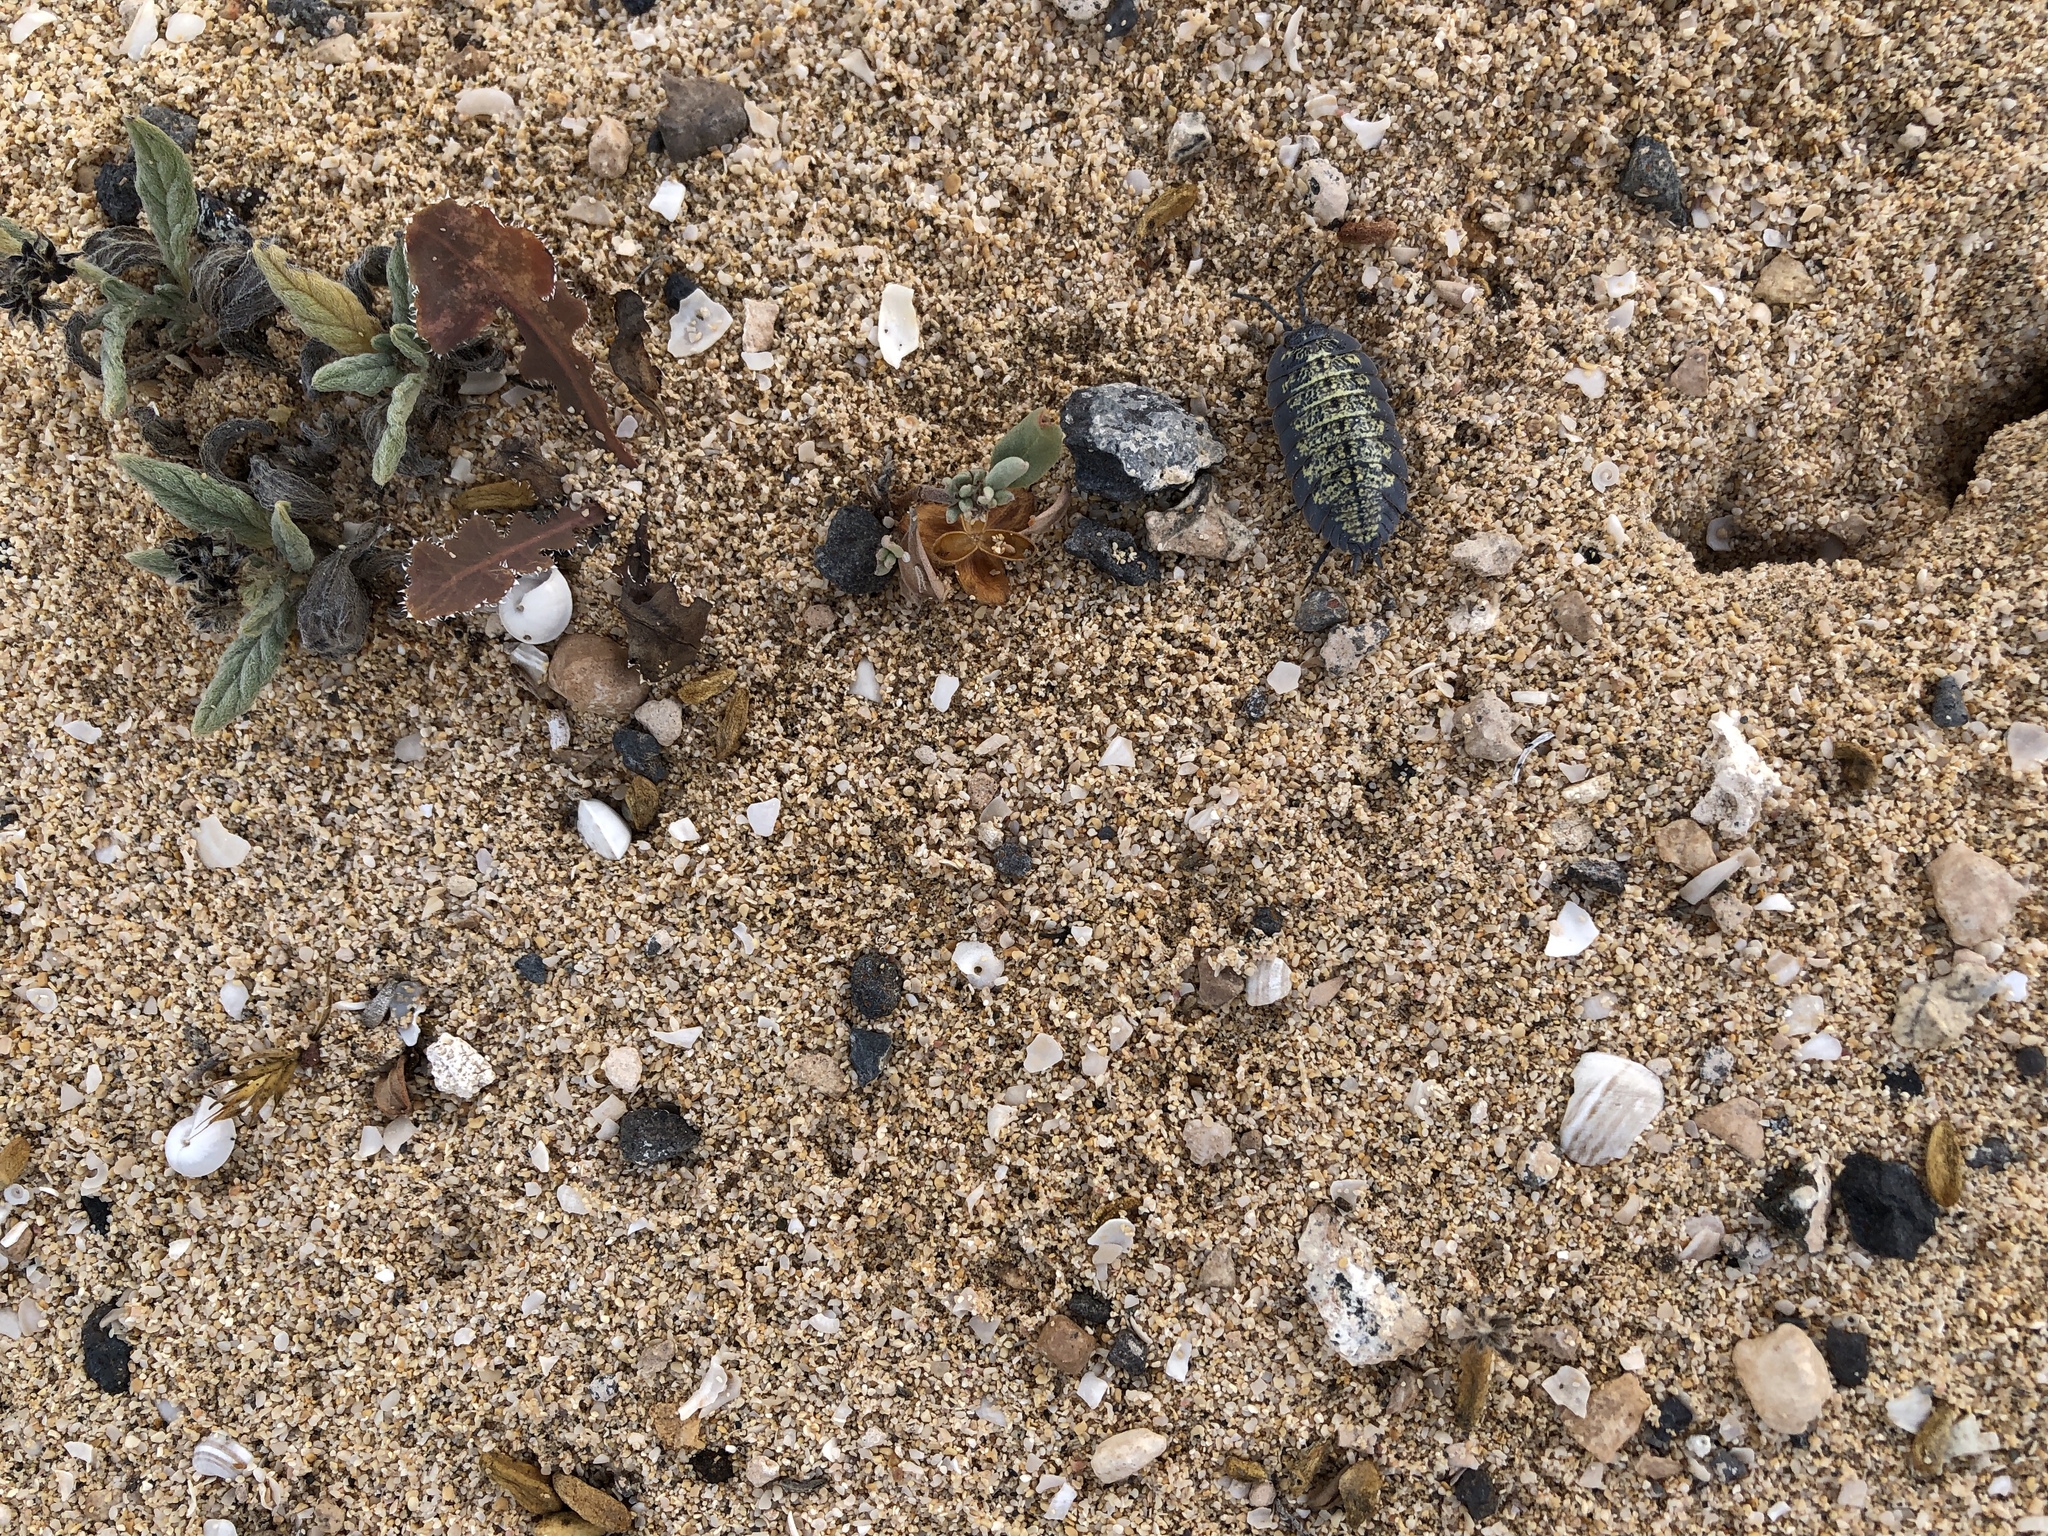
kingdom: Animalia
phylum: Arthropoda
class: Malacostraca
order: Isopoda
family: Porcellionidae
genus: Porcellio
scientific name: Porcellio spinipes
